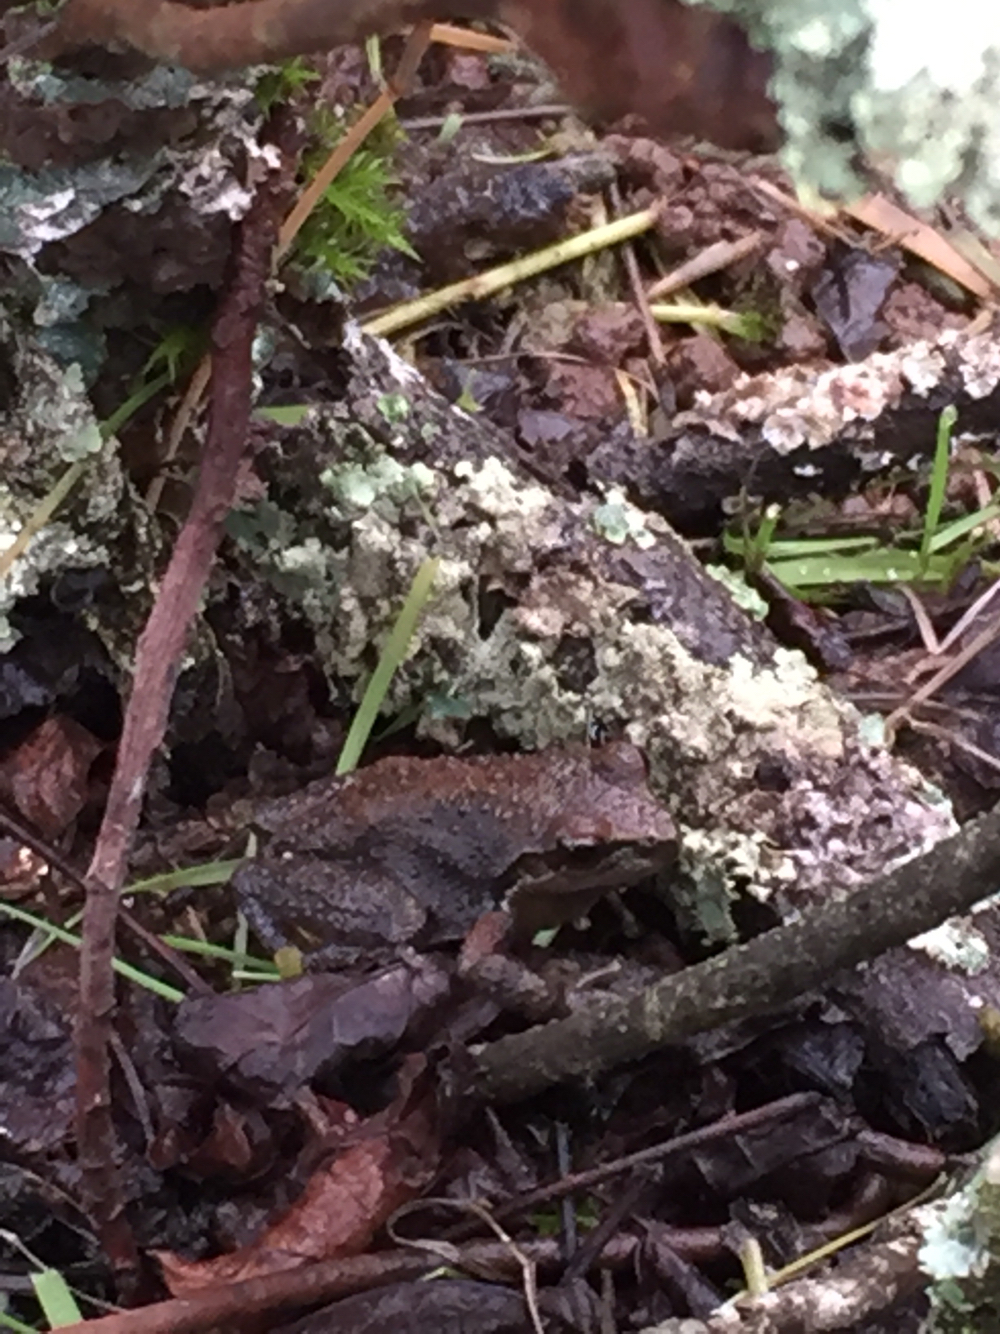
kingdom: Animalia
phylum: Chordata
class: Amphibia
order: Anura
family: Hylidae
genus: Pseudacris
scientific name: Pseudacris regilla
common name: Pacific chorus frog
